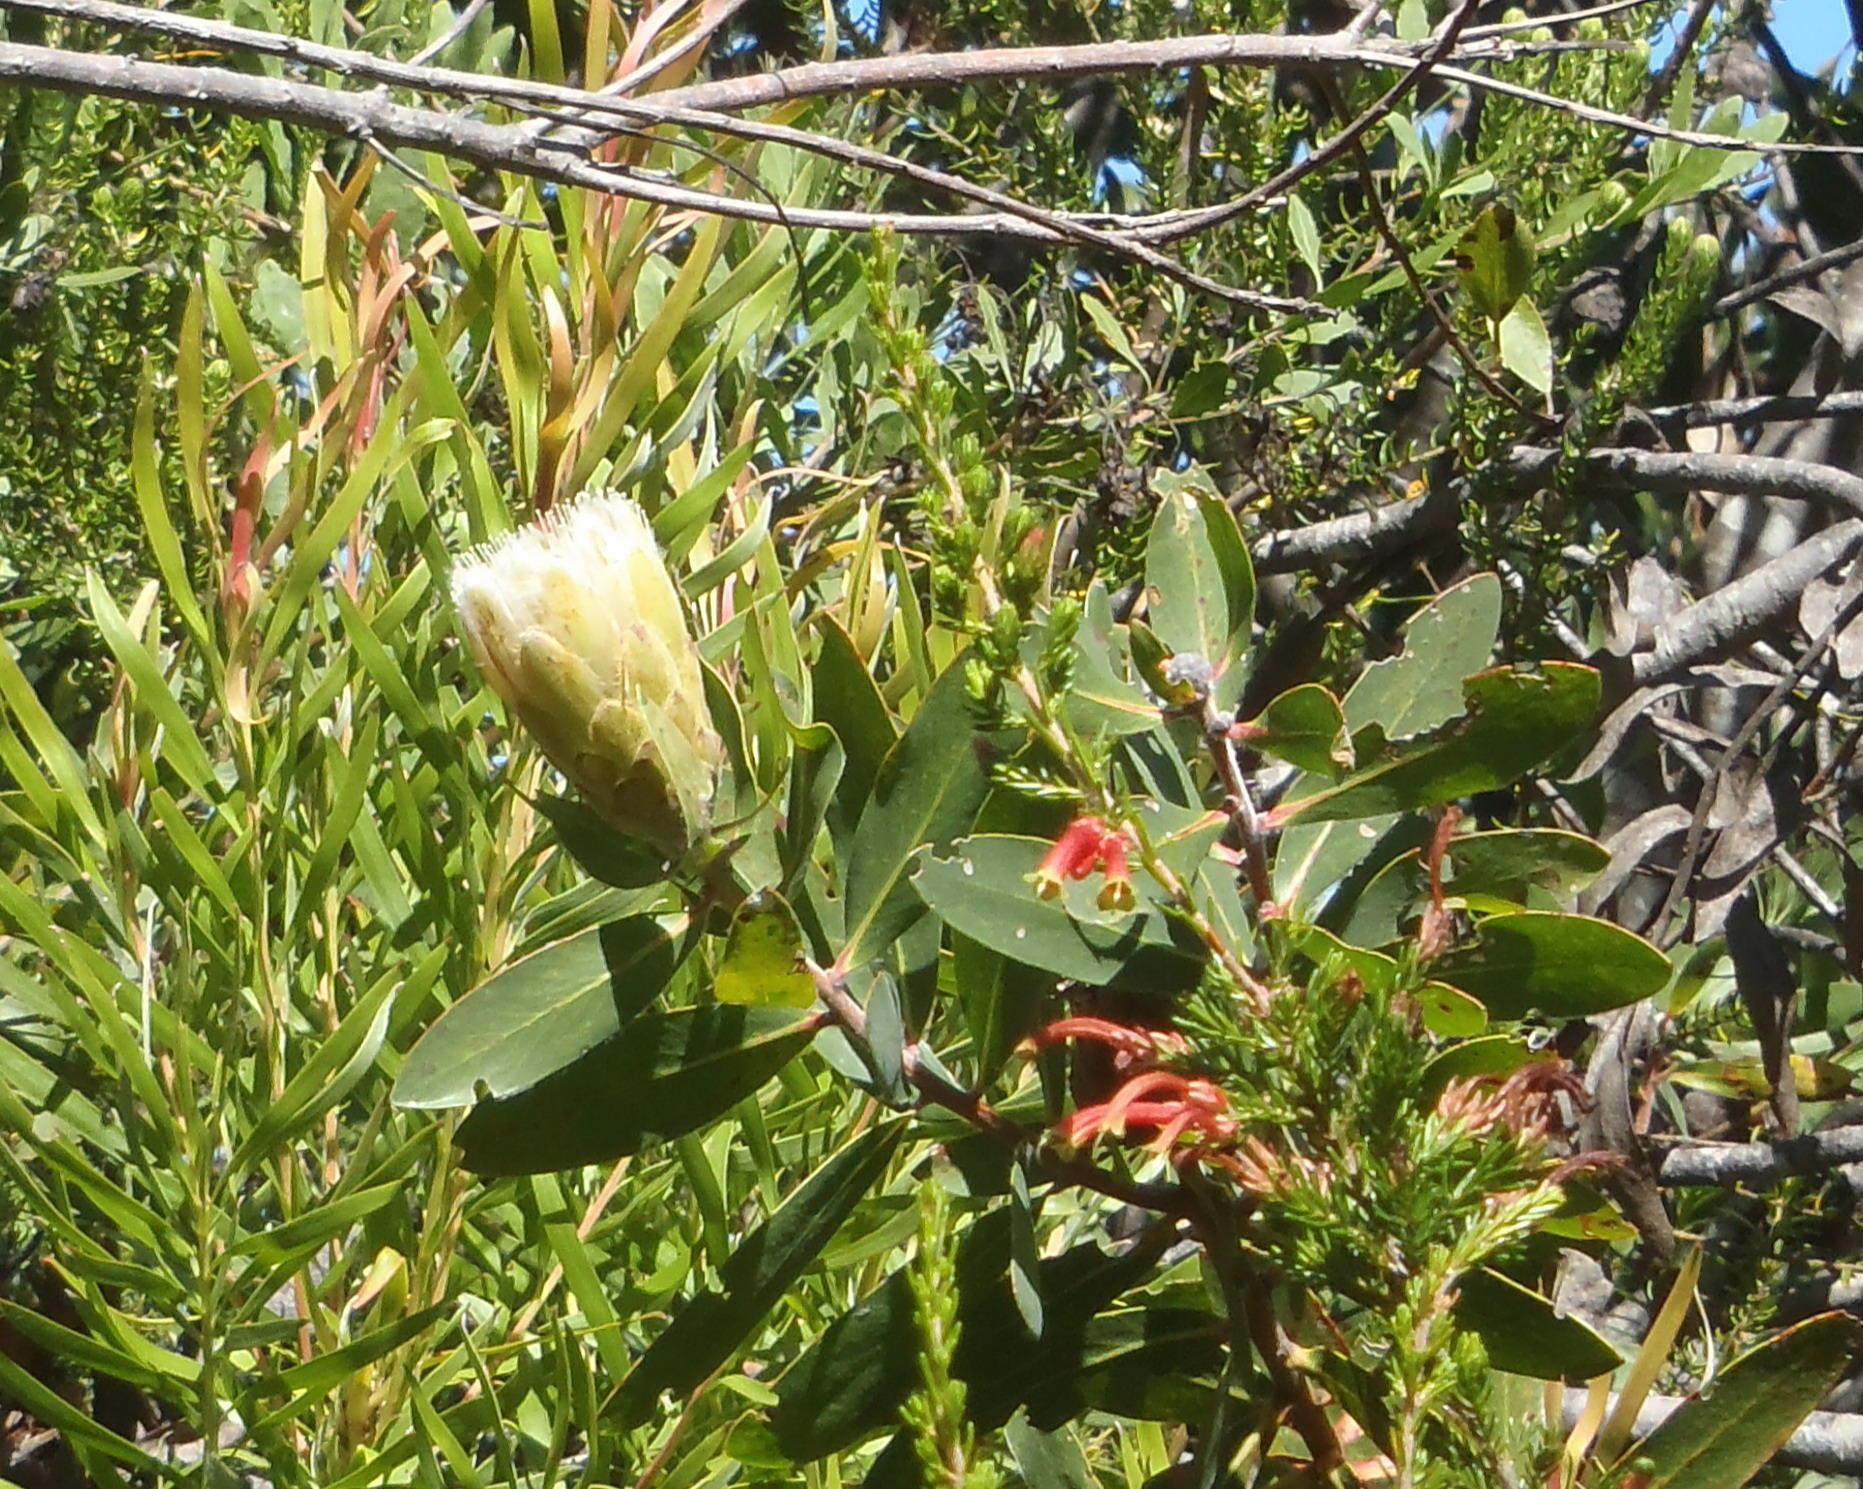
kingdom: Plantae
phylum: Tracheophyta
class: Magnoliopsida
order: Proteales
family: Proteaceae
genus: Protea
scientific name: Protea mundii
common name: Forest sugarbush
